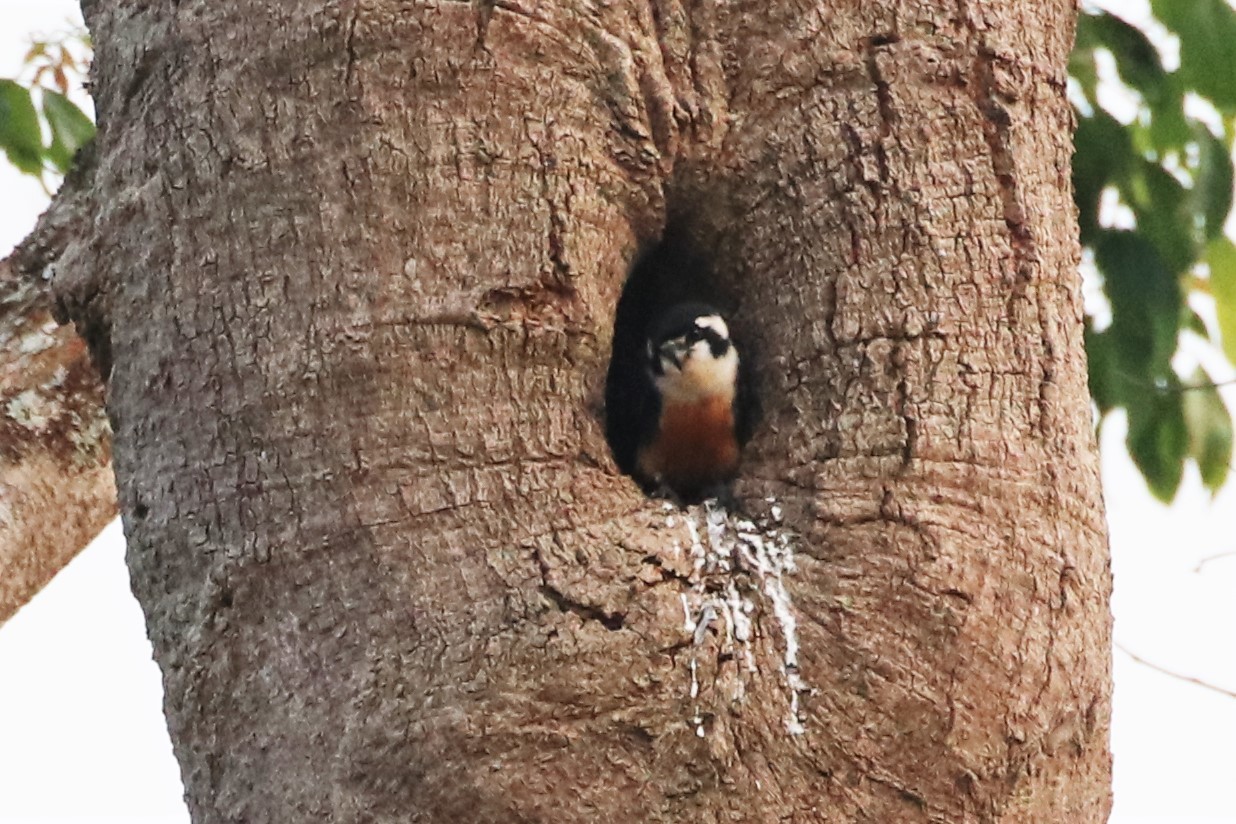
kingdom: Animalia
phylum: Chordata
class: Aves
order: Falconiformes
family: Falconidae
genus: Microhierax
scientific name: Microhierax fringillarius
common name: Black-thighed falconet
